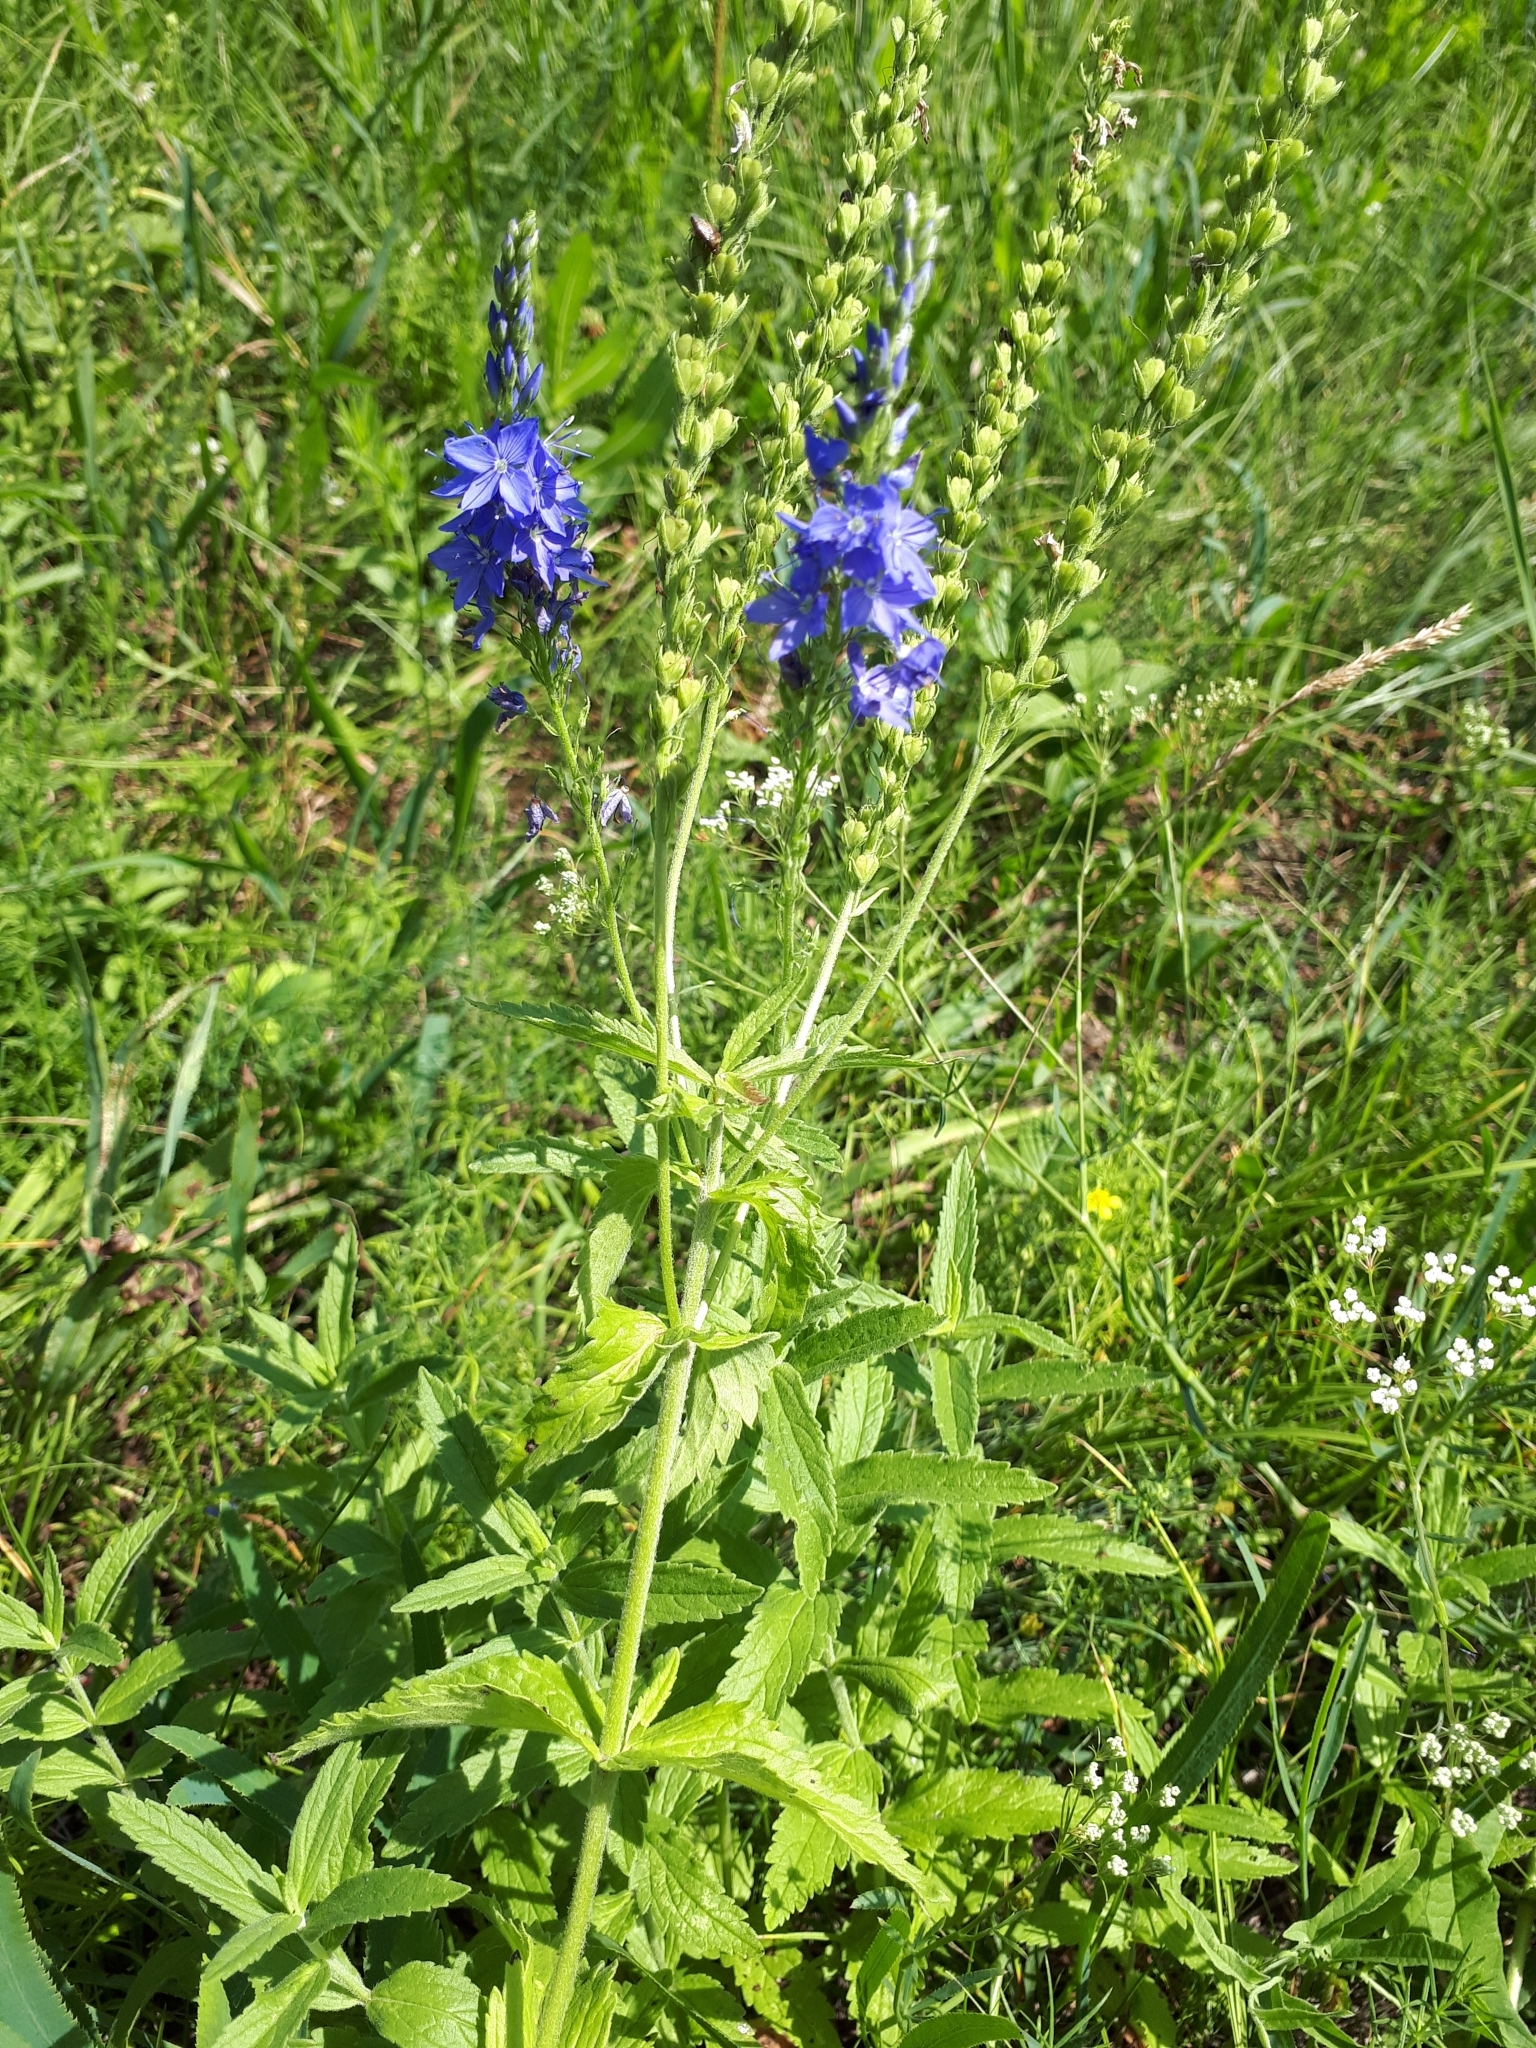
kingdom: Plantae
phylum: Tracheophyta
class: Magnoliopsida
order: Lamiales
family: Plantaginaceae
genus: Veronica
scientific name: Veronica teucrium
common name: Large speedwell
